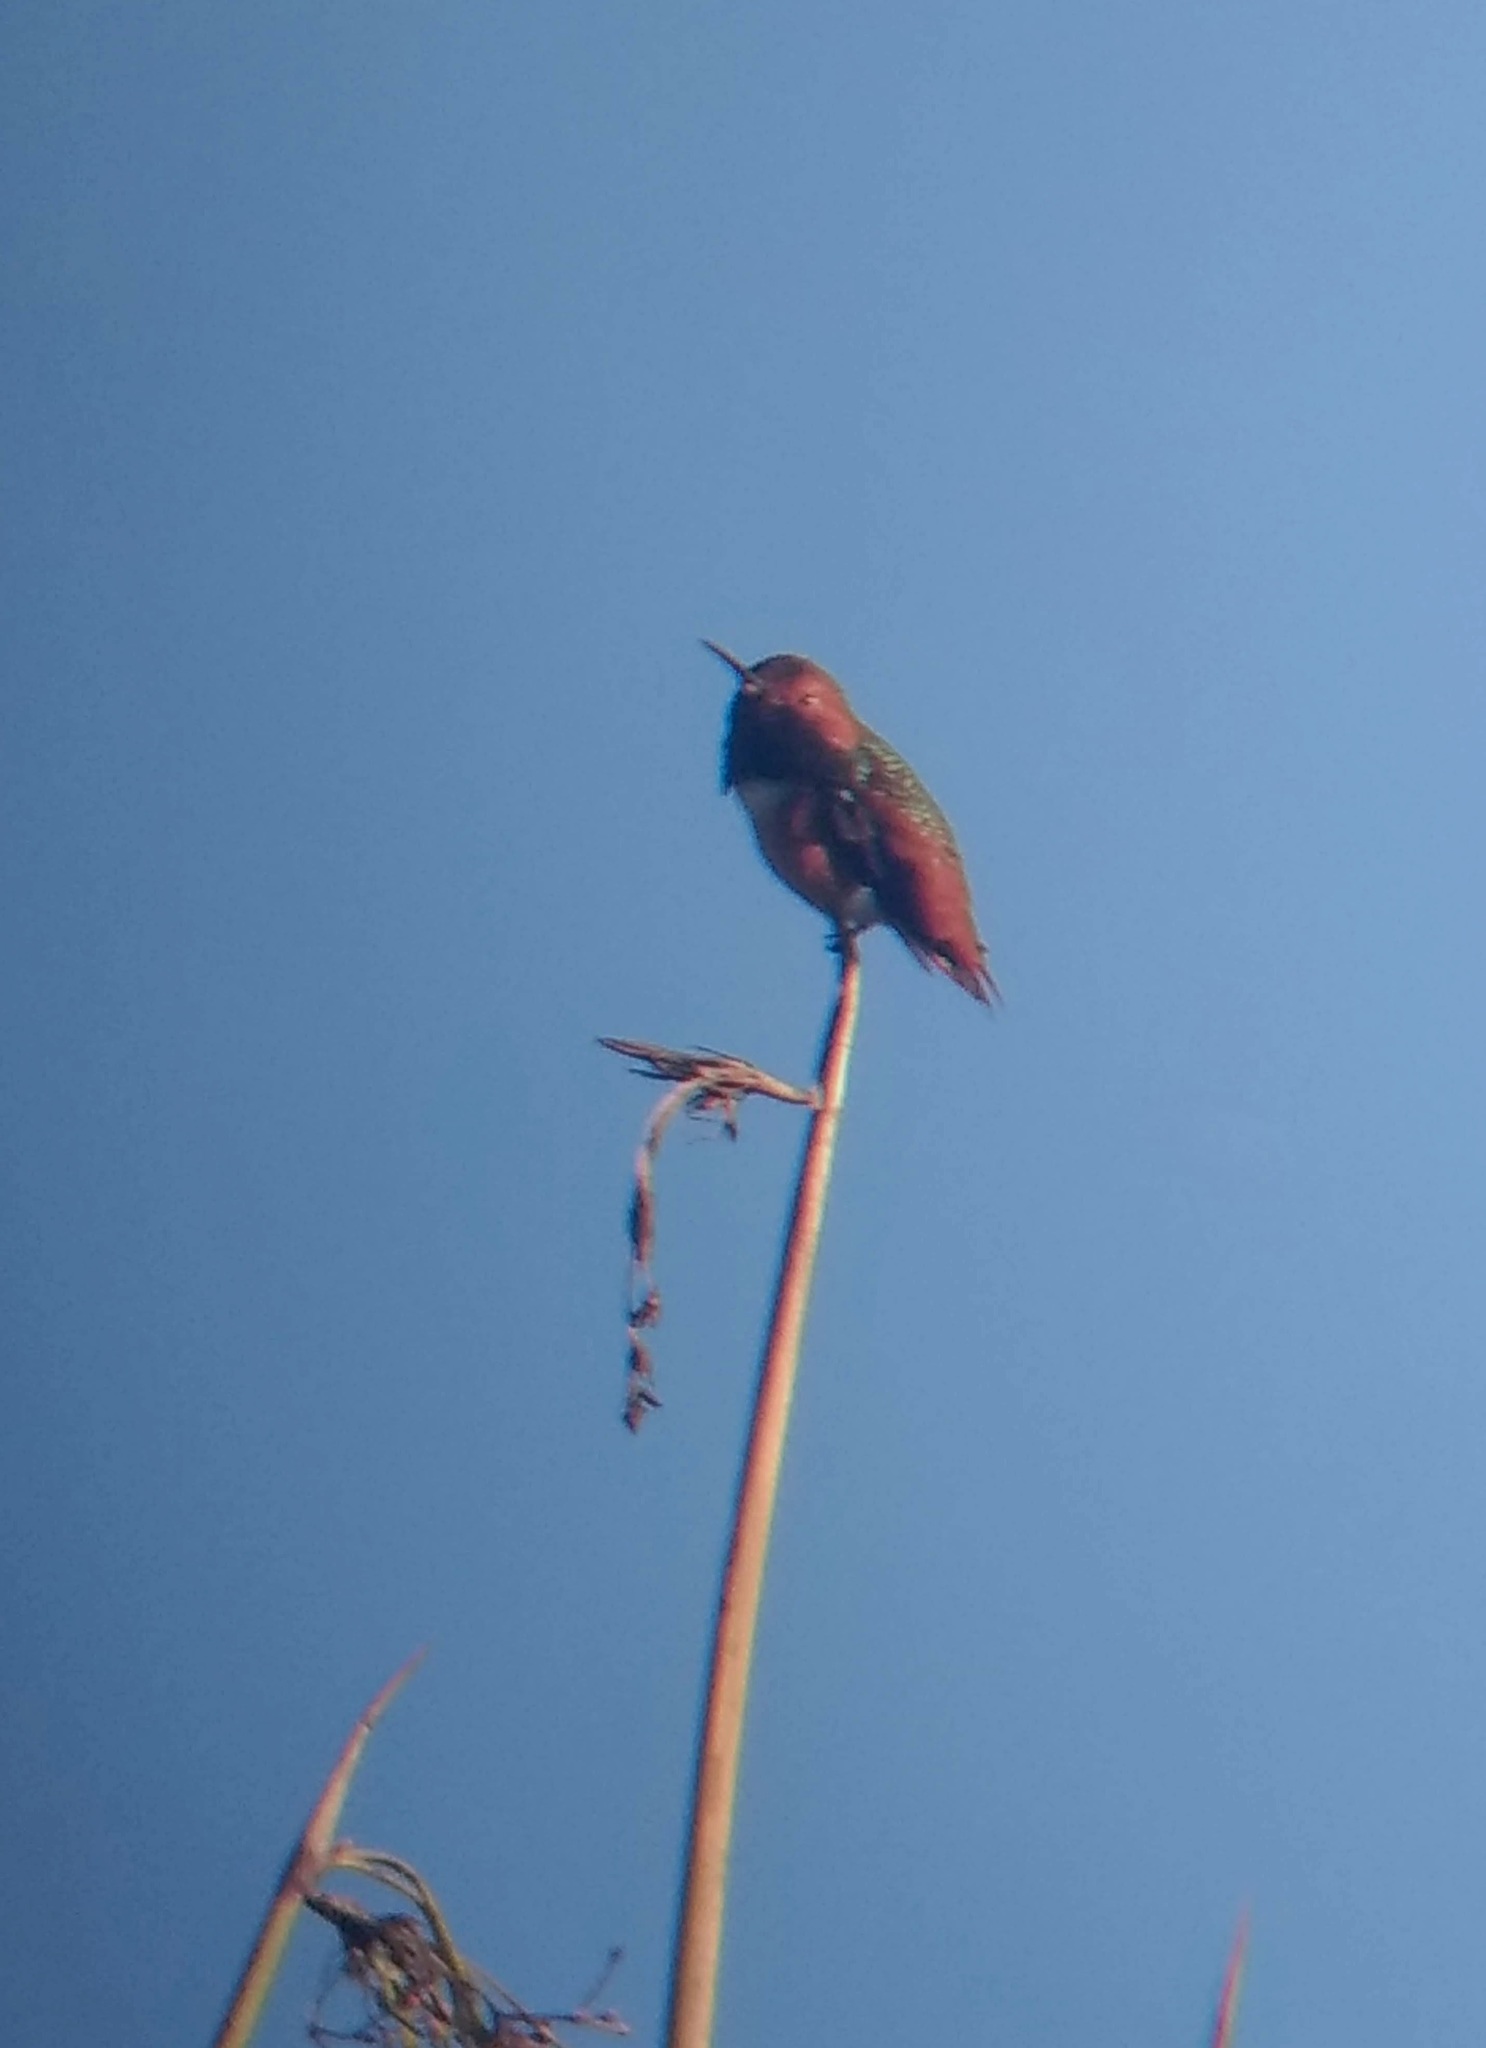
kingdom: Animalia
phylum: Chordata
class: Aves
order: Apodiformes
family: Trochilidae
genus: Selasphorus
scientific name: Selasphorus sasin
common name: Allen's hummingbird
